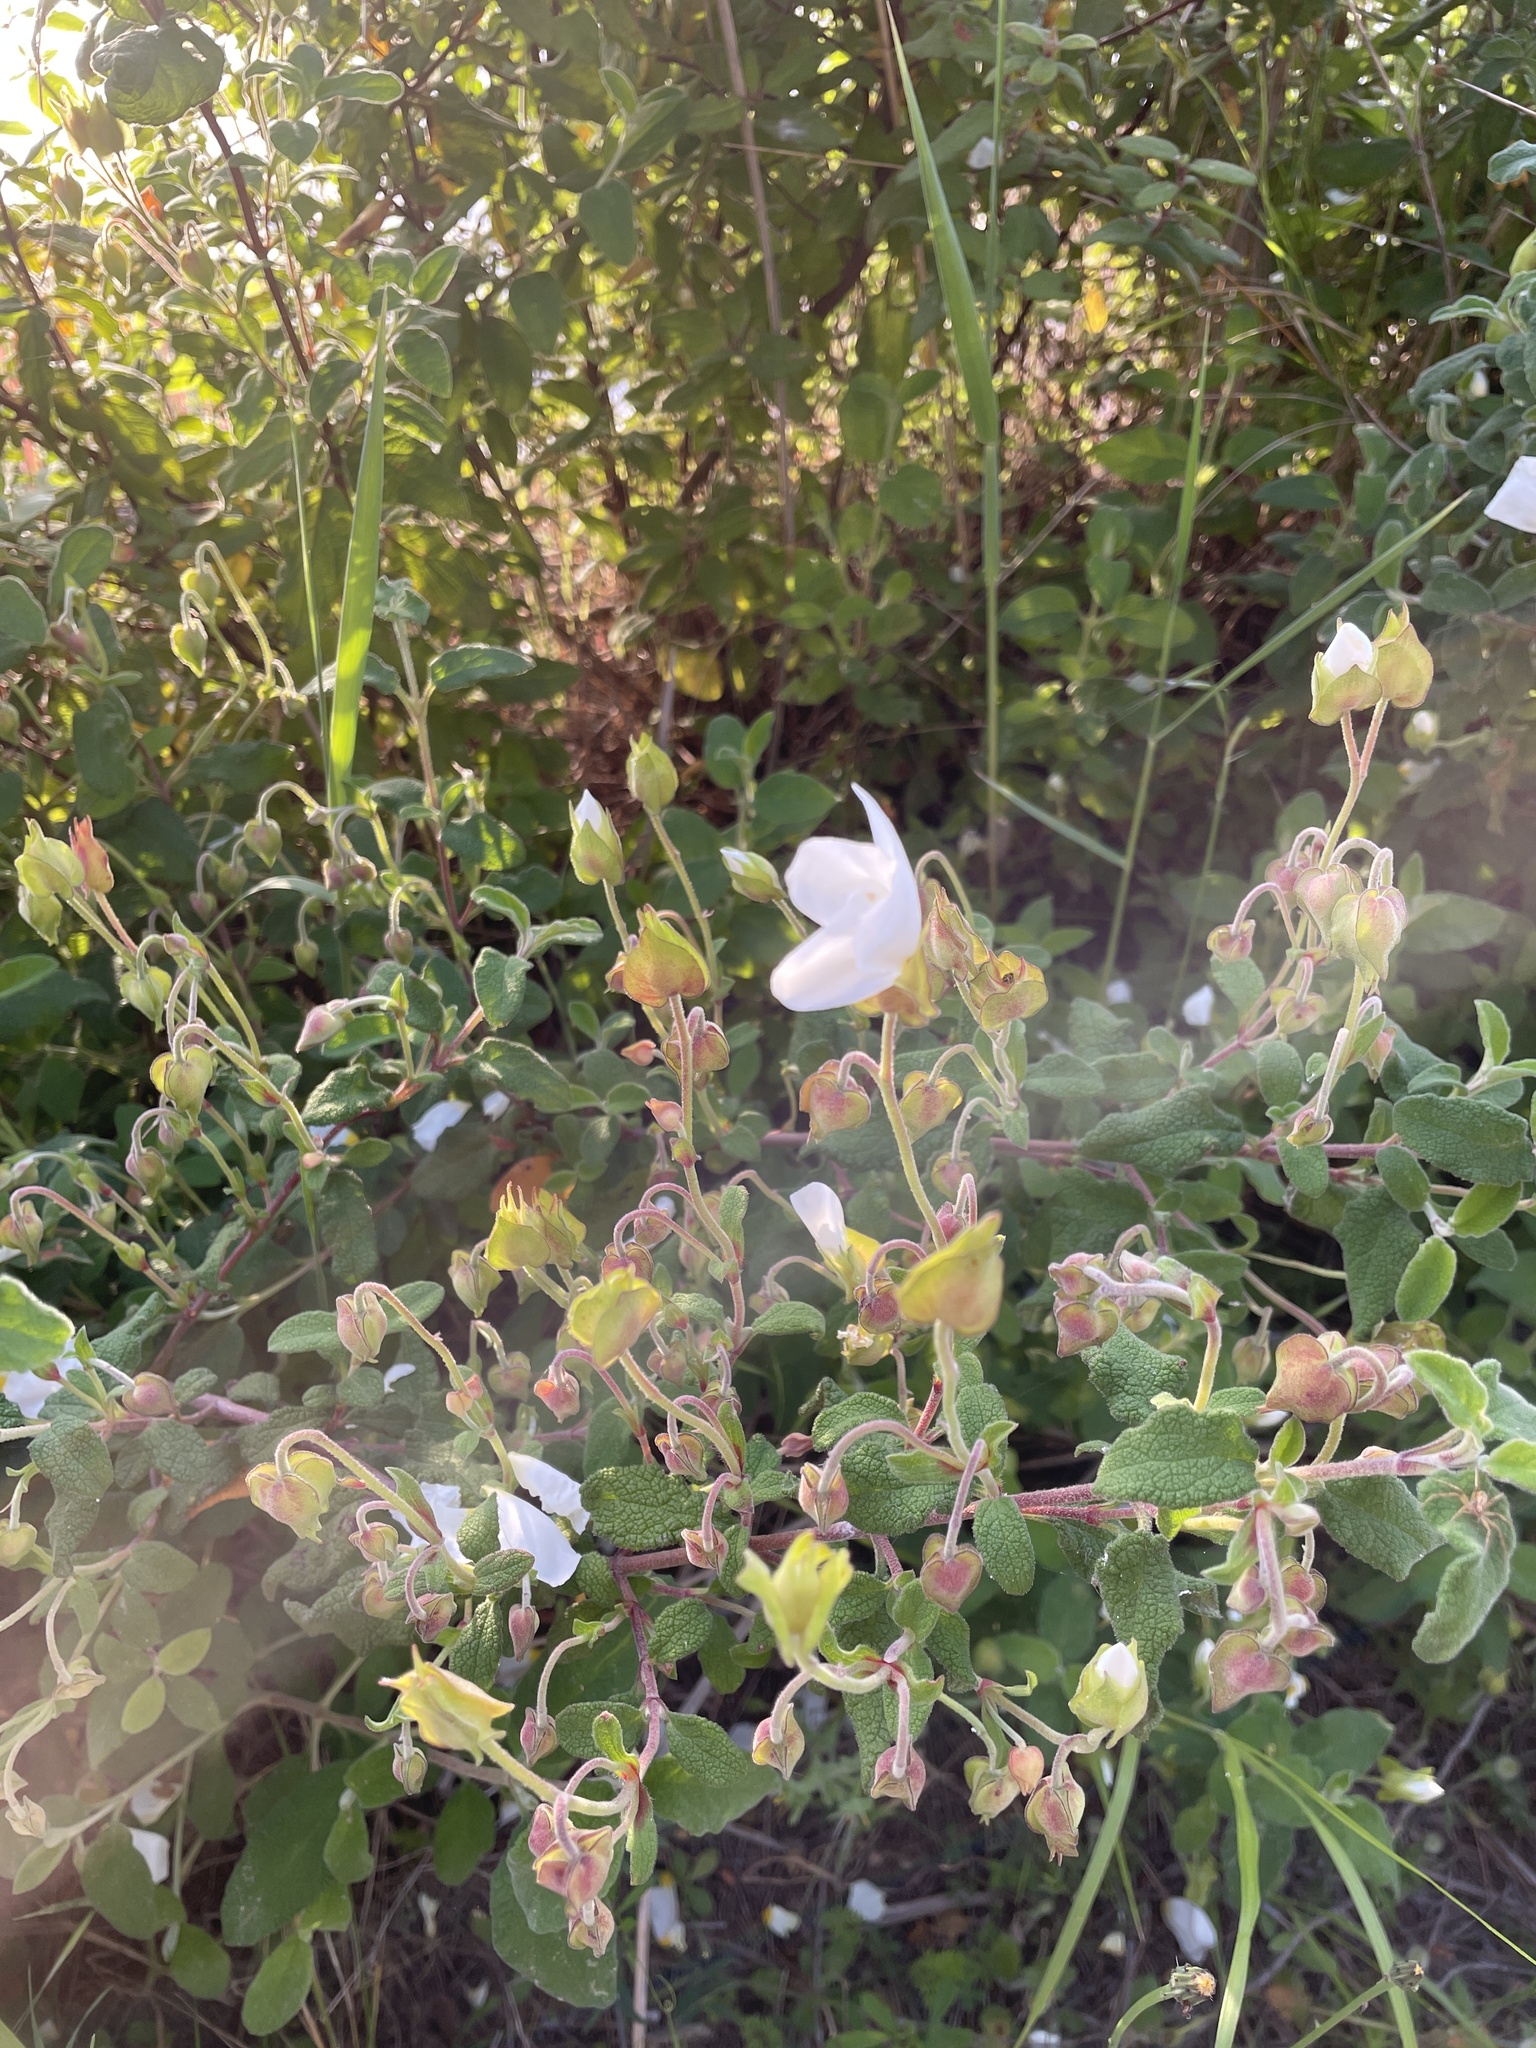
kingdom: Plantae
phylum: Tracheophyta
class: Magnoliopsida
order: Malvales
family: Cistaceae
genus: Cistus
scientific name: Cistus salviifolius
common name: Salvia cistus
